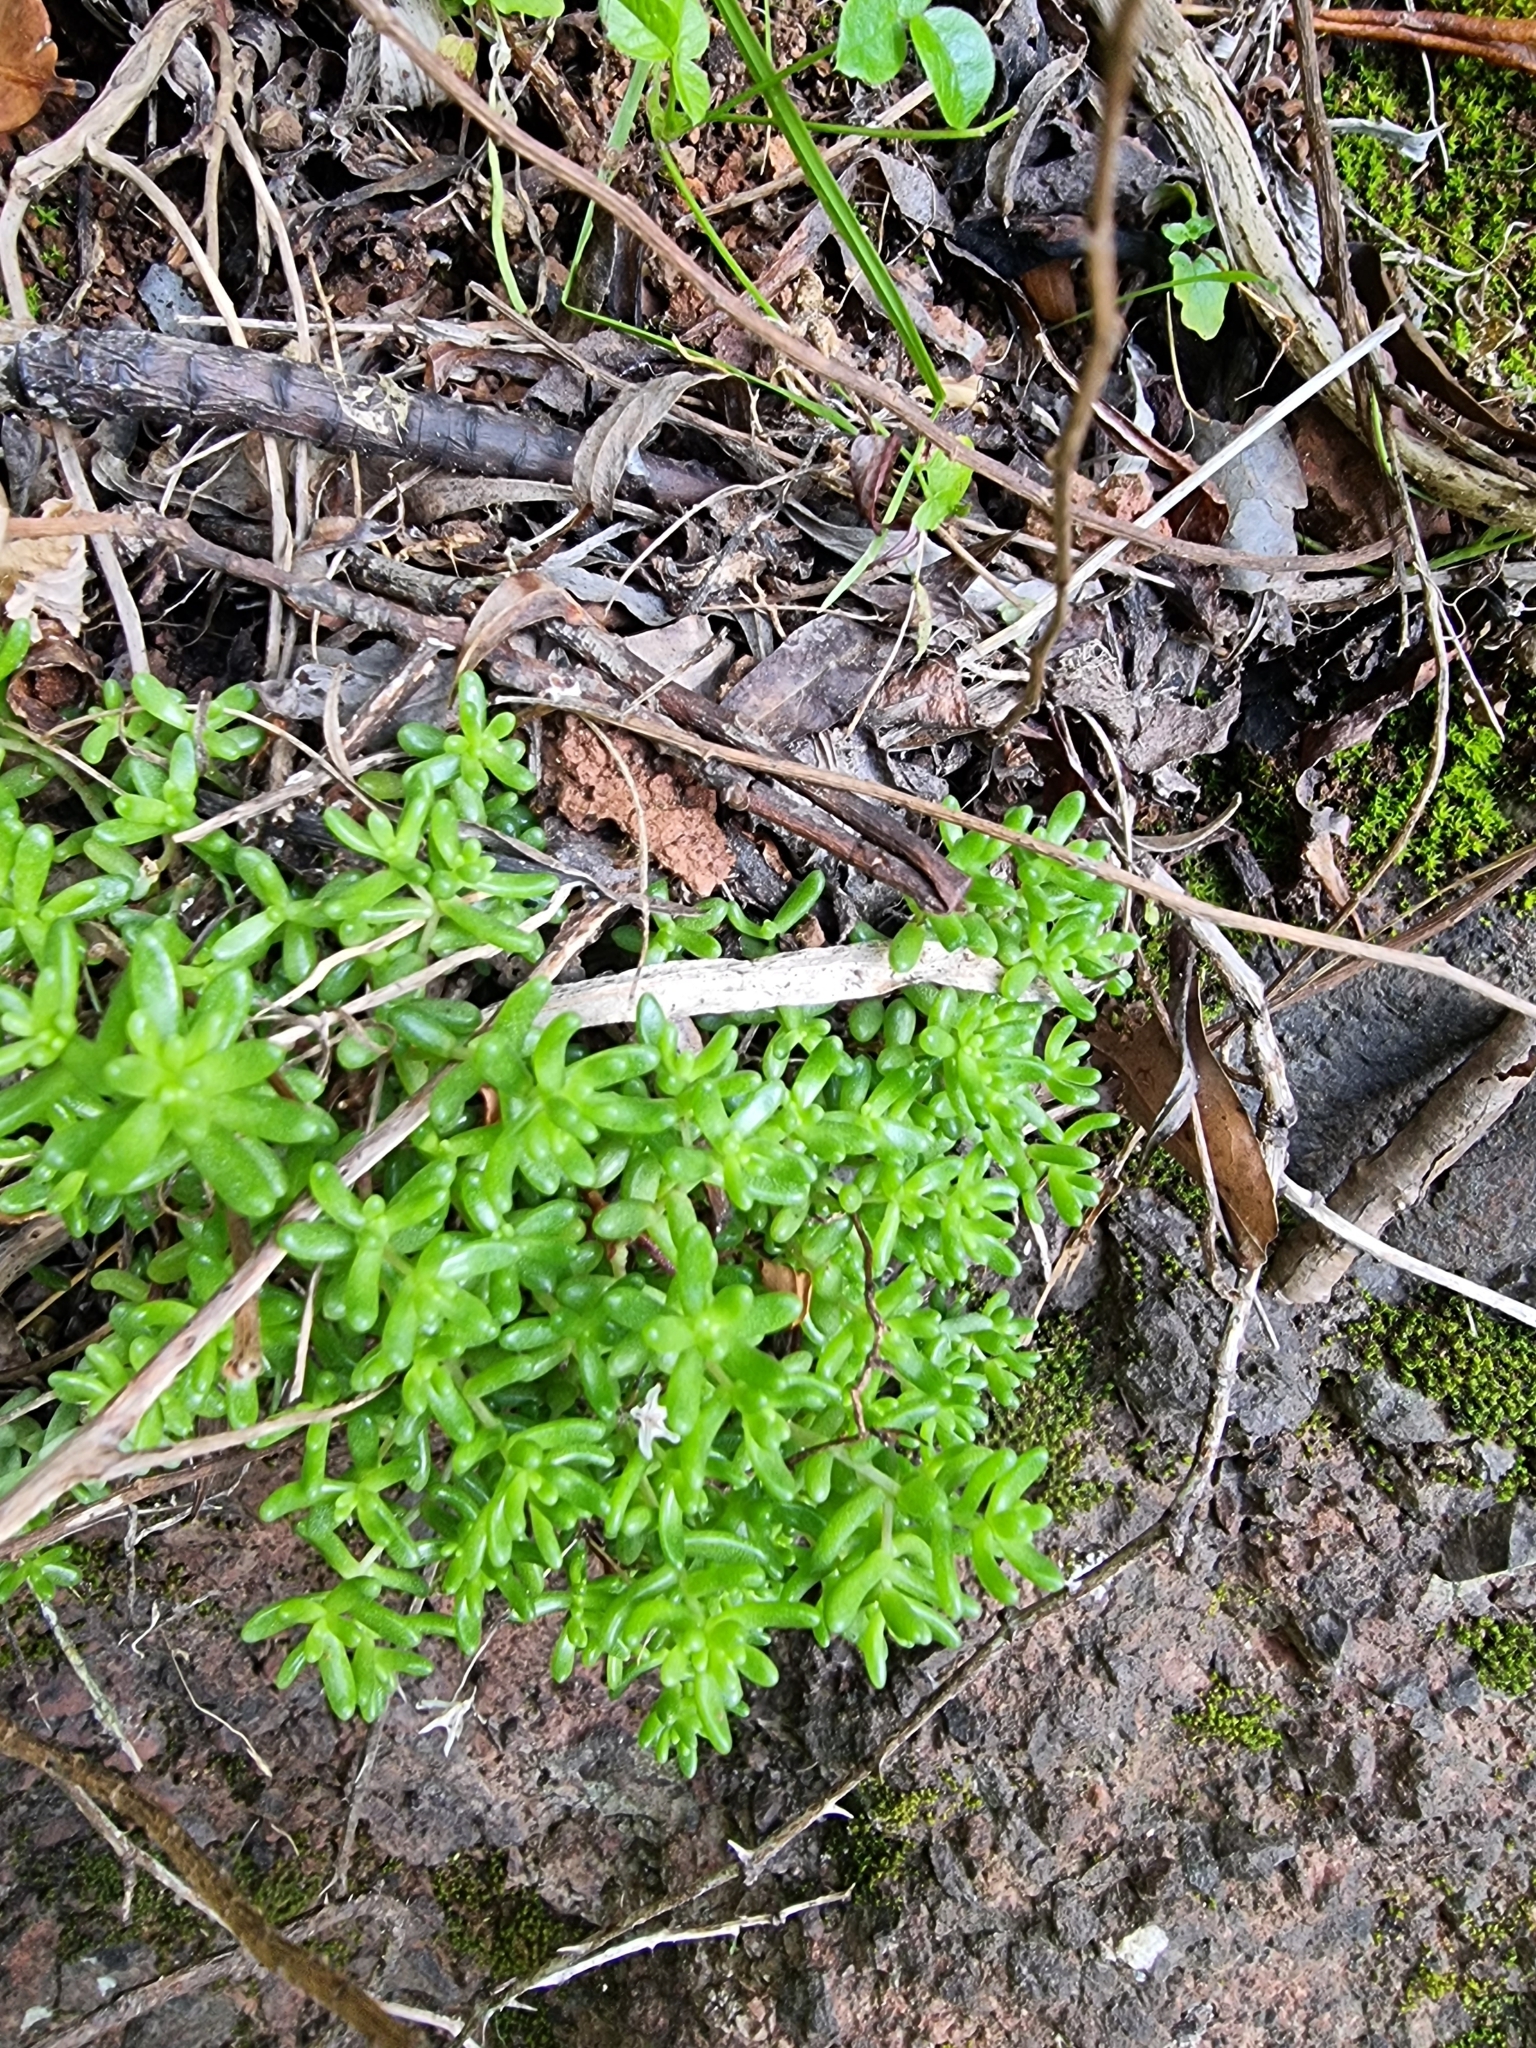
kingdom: Plantae
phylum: Tracheophyta
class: Magnoliopsida
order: Saxifragales
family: Crassulaceae
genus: Sedum
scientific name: Sedum nudum
